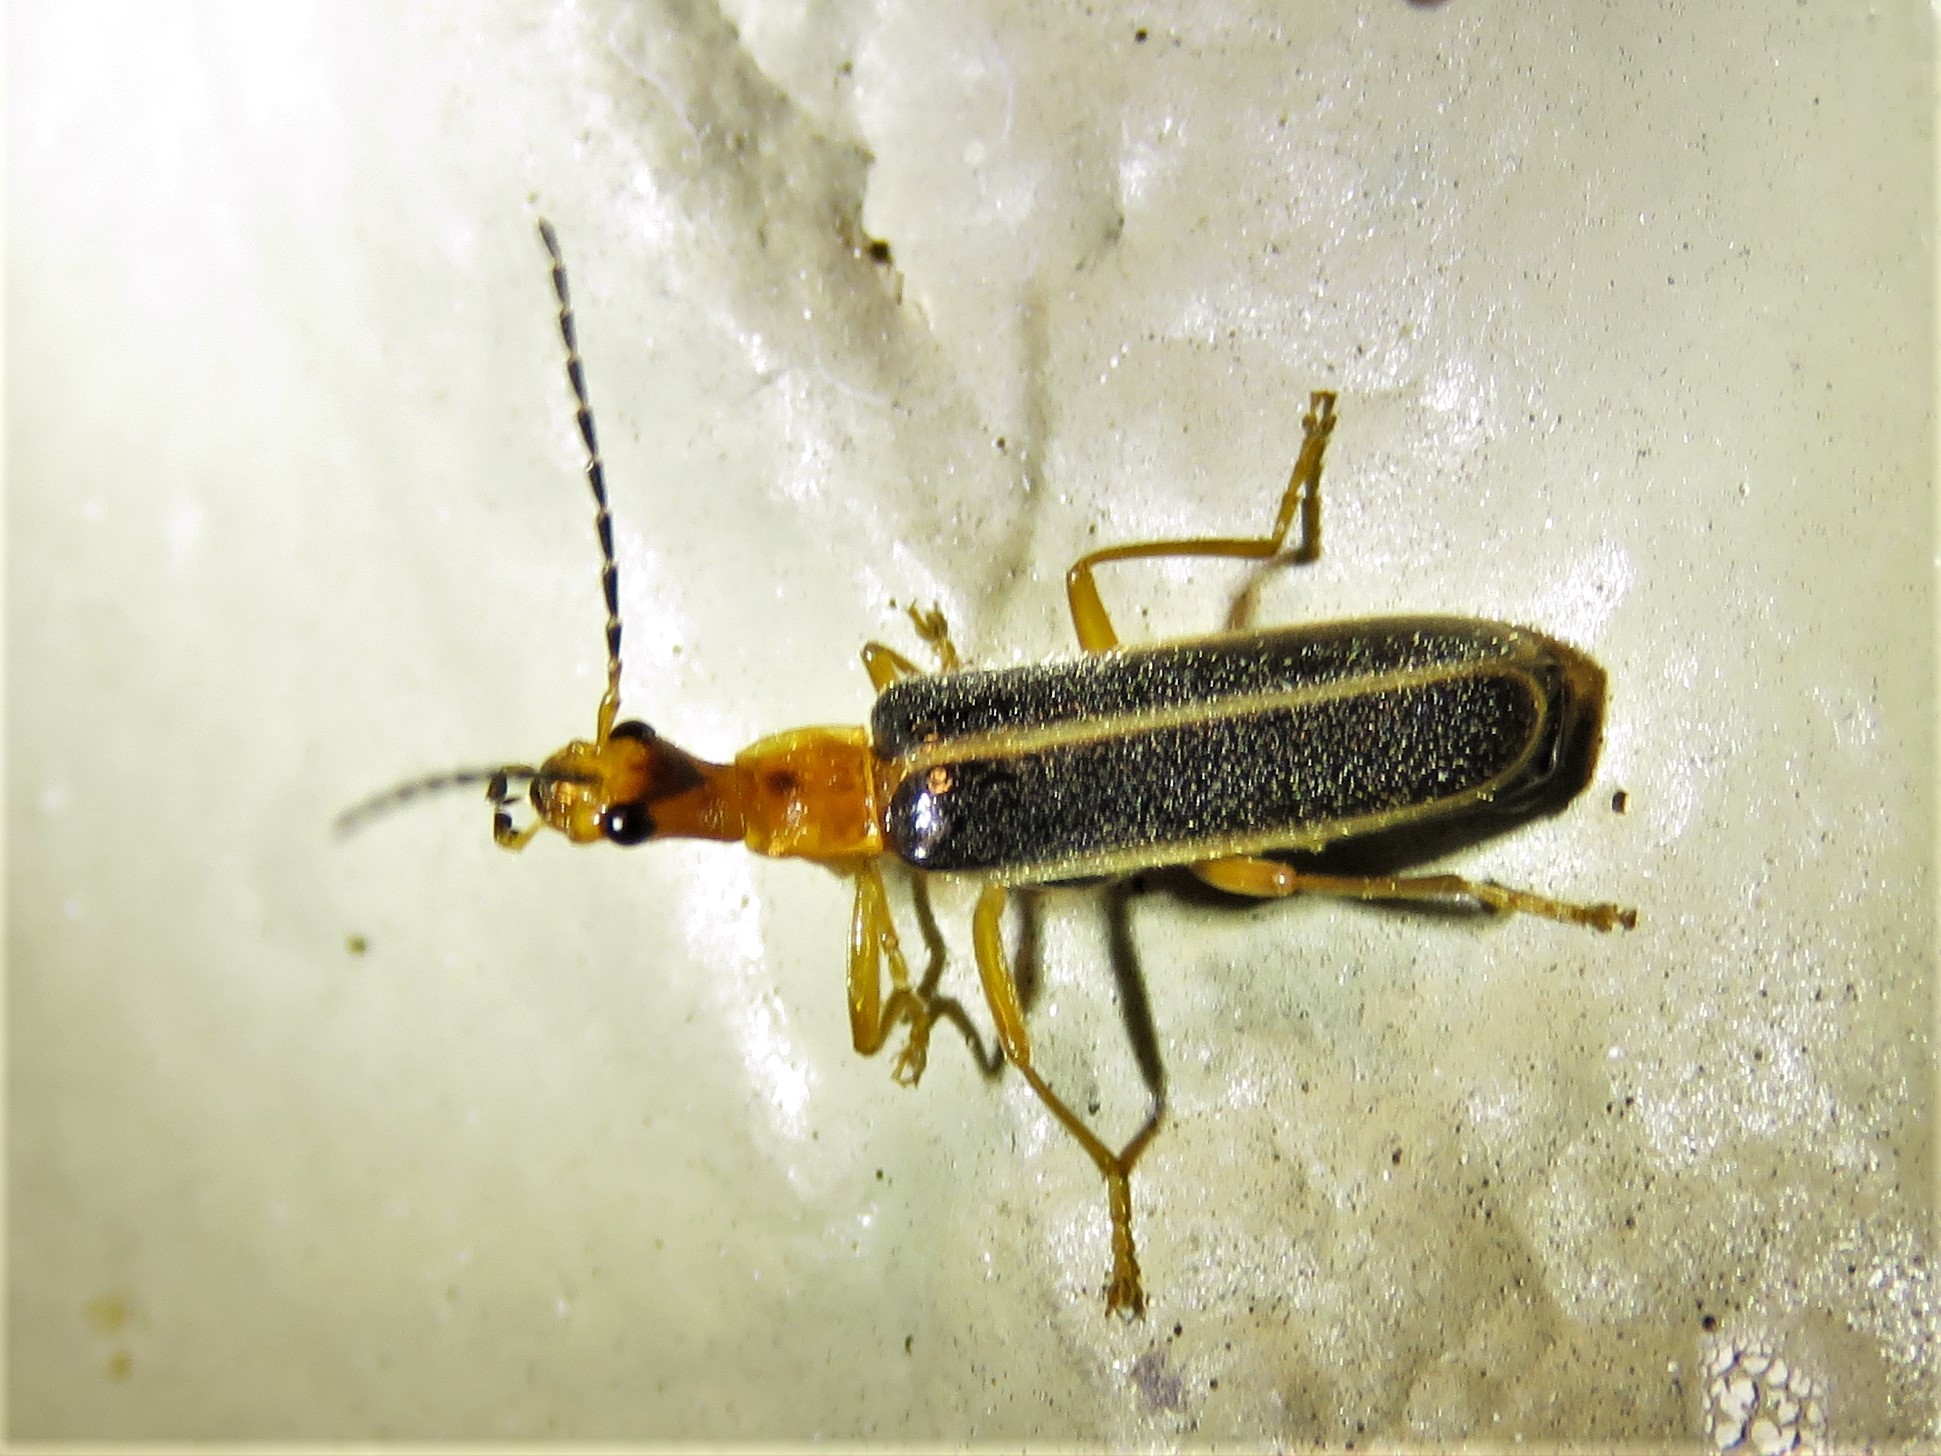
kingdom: Animalia
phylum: Arthropoda
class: Insecta
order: Coleoptera
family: Cantharidae
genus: Podabrus
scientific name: Podabrus dreisbachi
